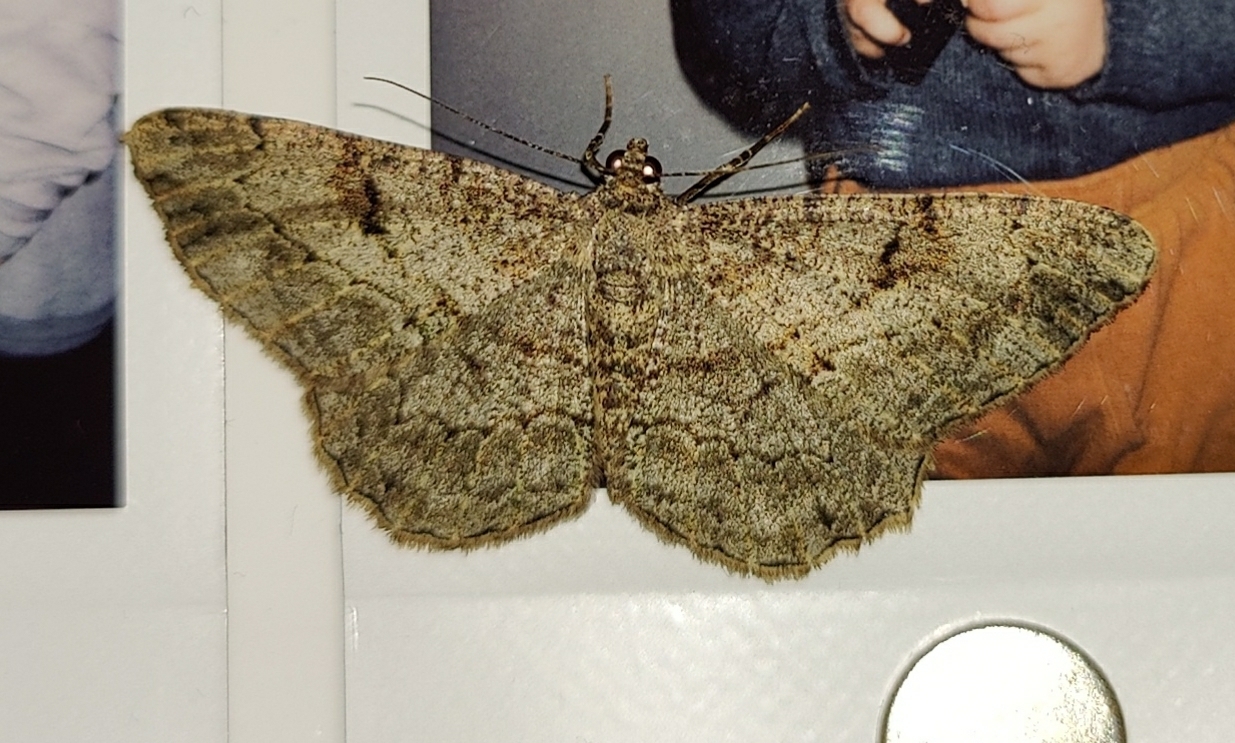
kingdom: Animalia
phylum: Arthropoda
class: Insecta
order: Lepidoptera
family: Geometridae
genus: Peribatodes
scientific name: Peribatodes rhomboidaria
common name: Willow beauty
